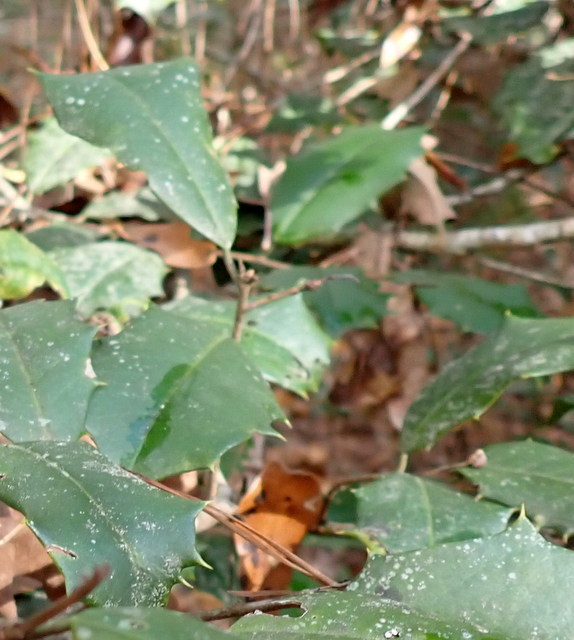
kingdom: Plantae
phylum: Tracheophyta
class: Magnoliopsida
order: Aquifoliales
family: Aquifoliaceae
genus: Ilex
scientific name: Ilex opaca
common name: American holly
